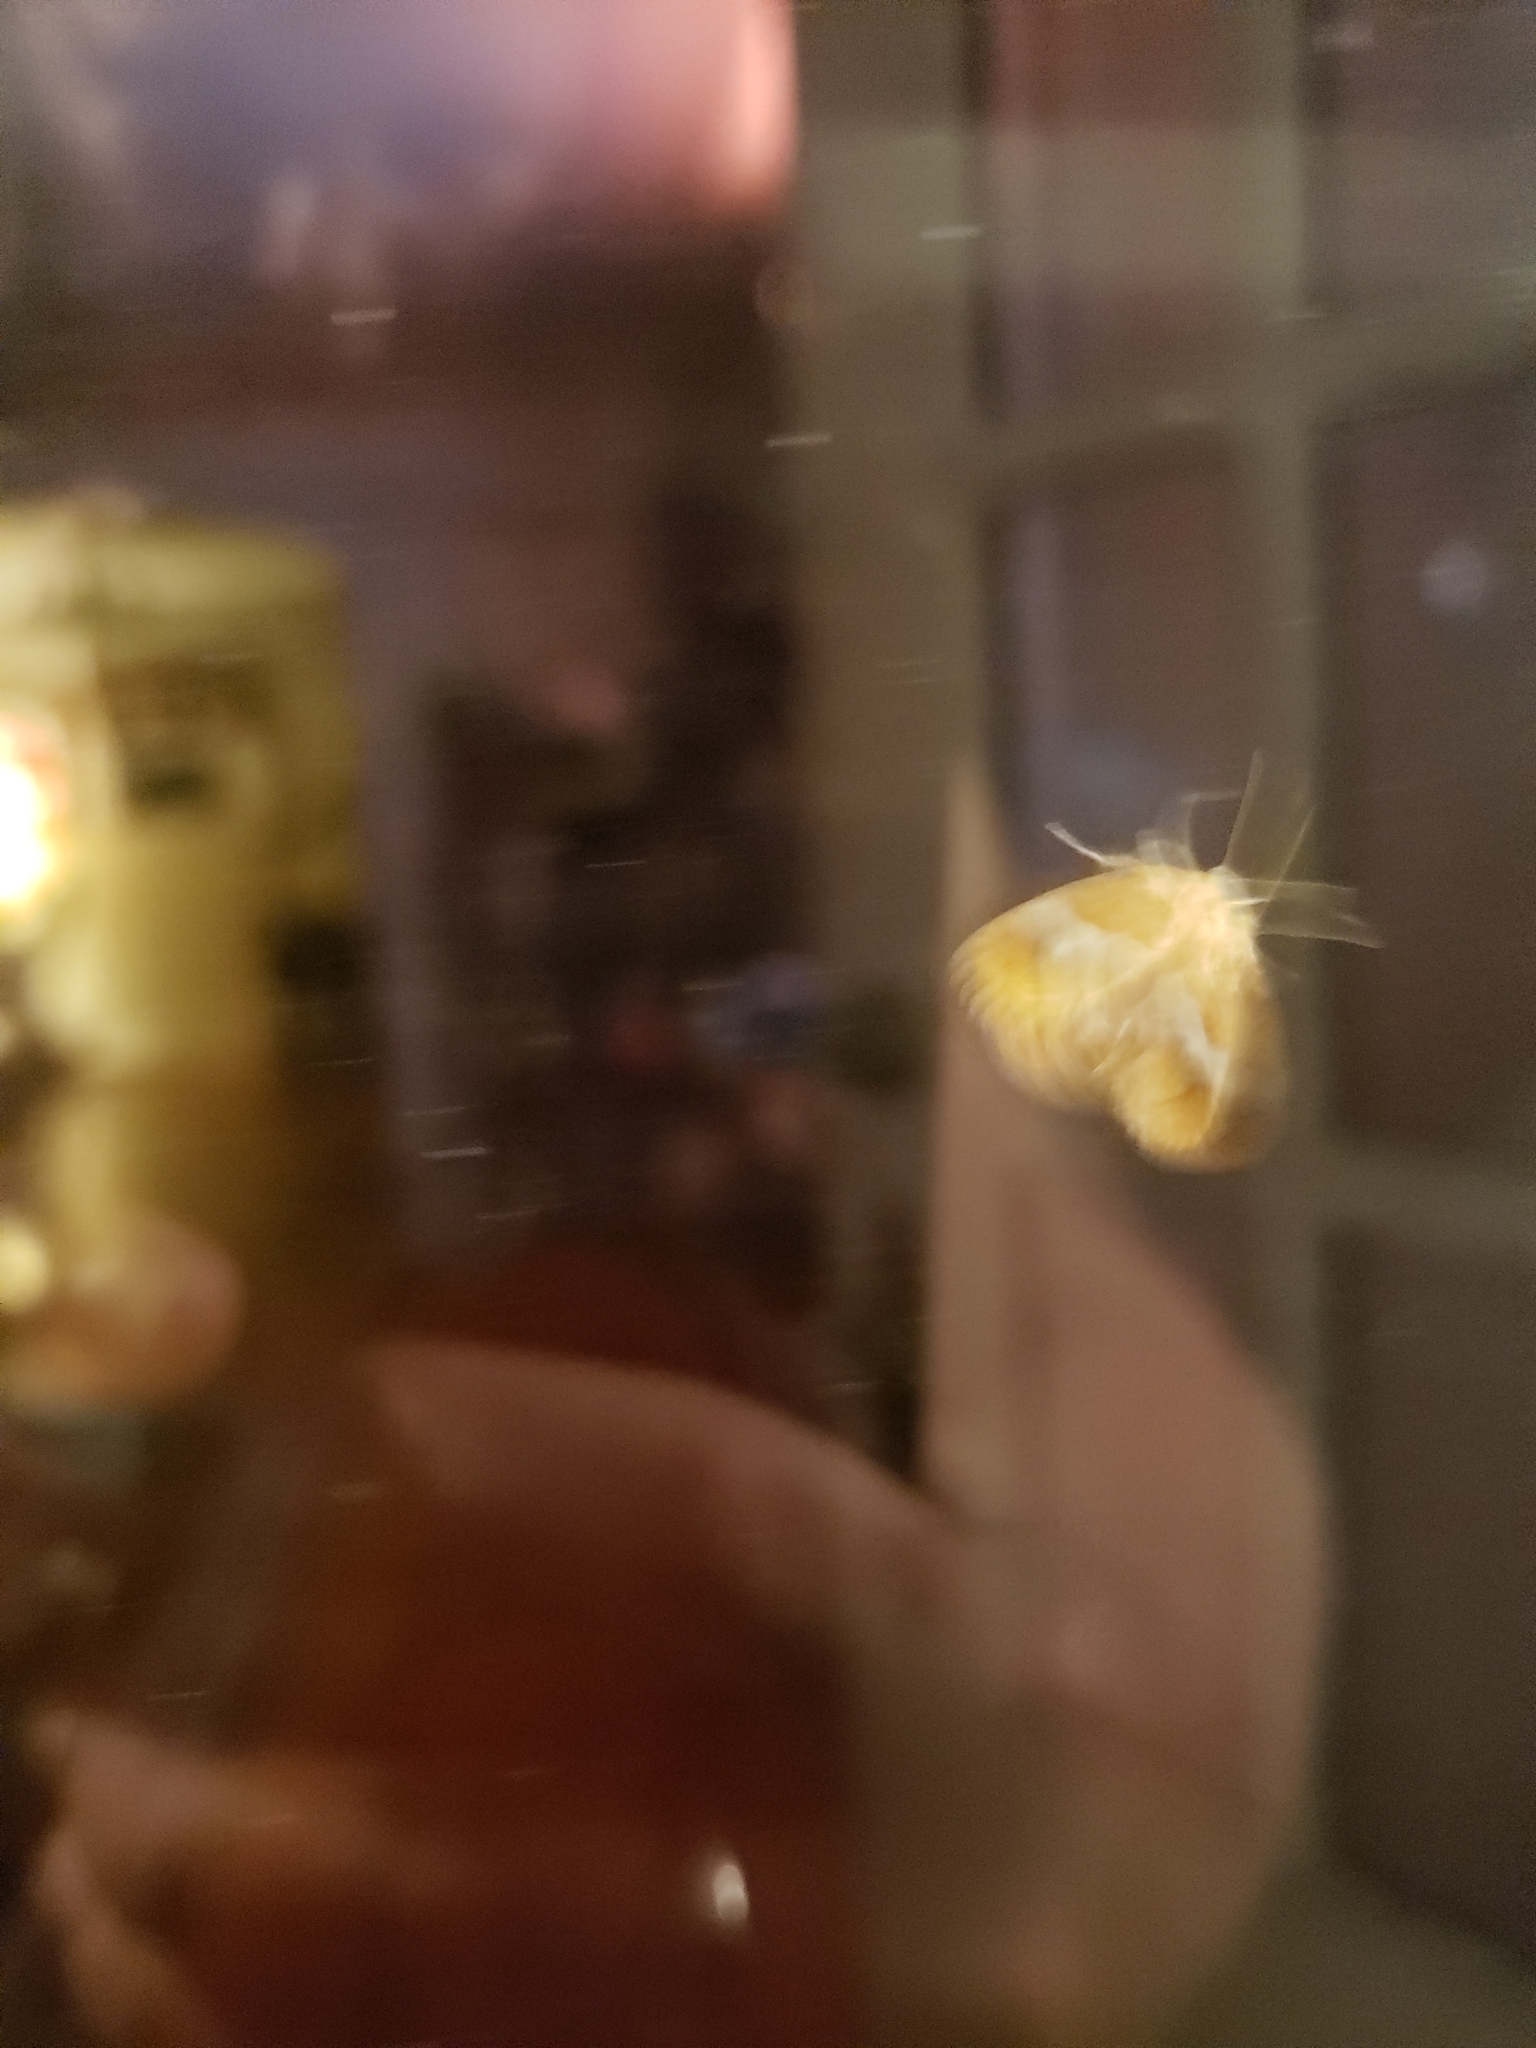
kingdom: Animalia
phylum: Arthropoda
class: Insecta
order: Lepidoptera
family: Limacodidae
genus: Lithacodes
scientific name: Lithacodes fasciola
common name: Yellow-shouldered slug moth
